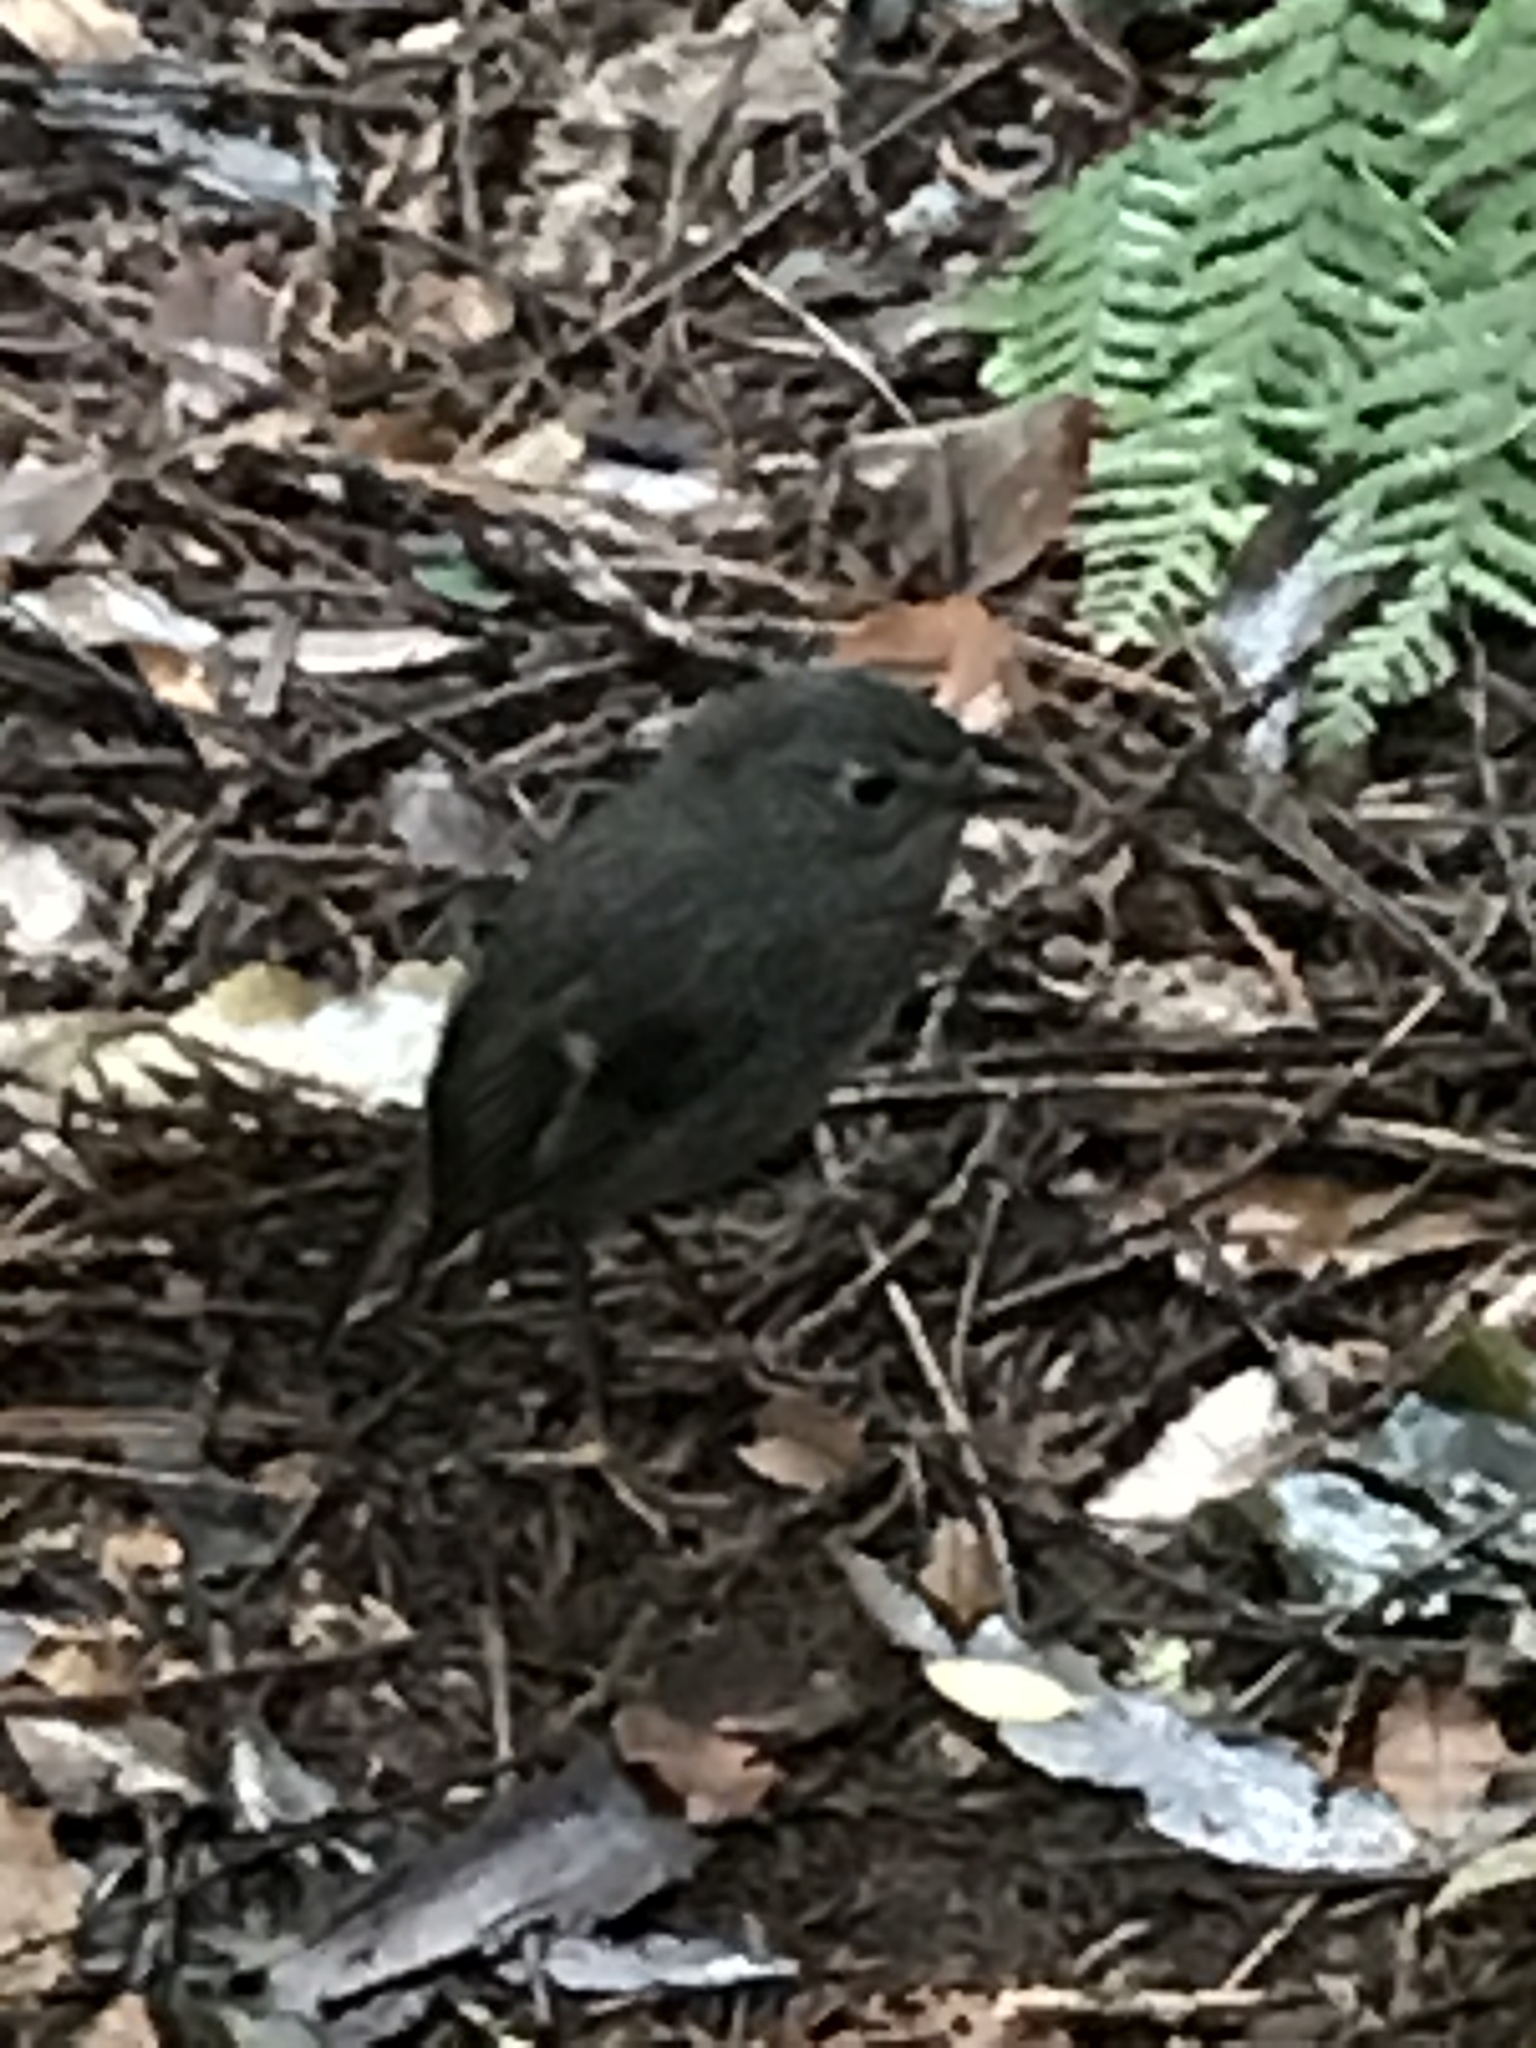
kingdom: Animalia
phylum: Chordata
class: Aves
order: Passeriformes
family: Petroicidae
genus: Petroica
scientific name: Petroica australis
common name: New zealand robin
